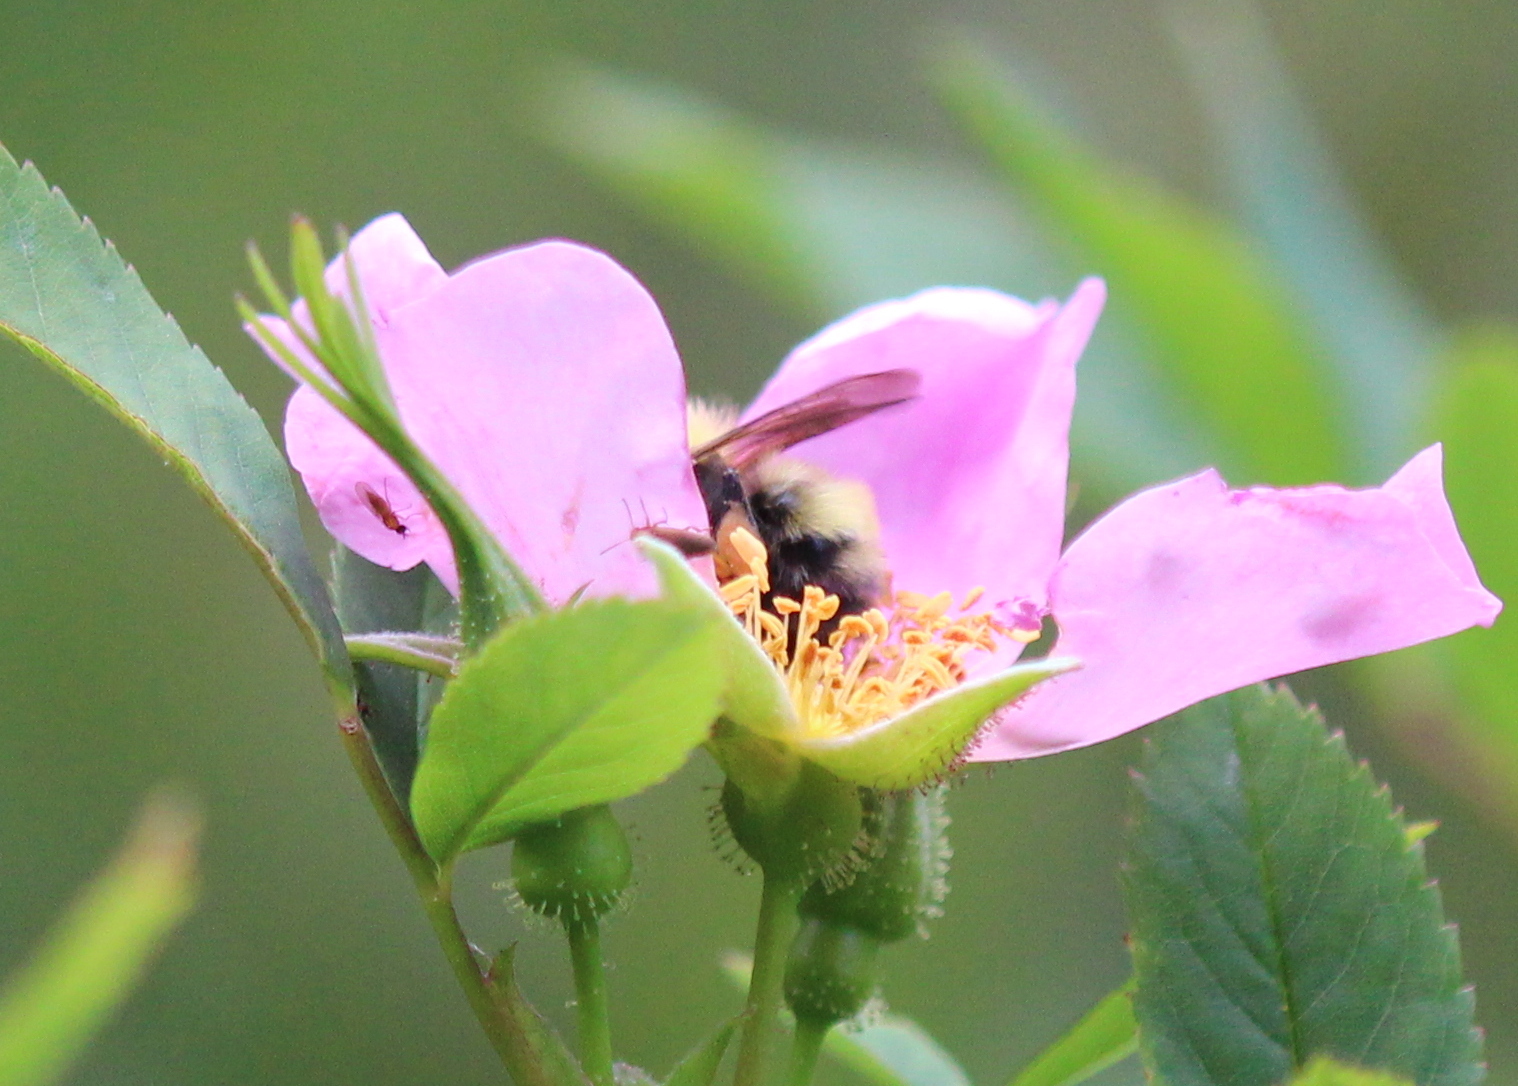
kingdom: Animalia
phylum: Arthropoda
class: Insecta
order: Hymenoptera
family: Apidae
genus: Bombus
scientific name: Bombus perplexus
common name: Confusing bumble bee
